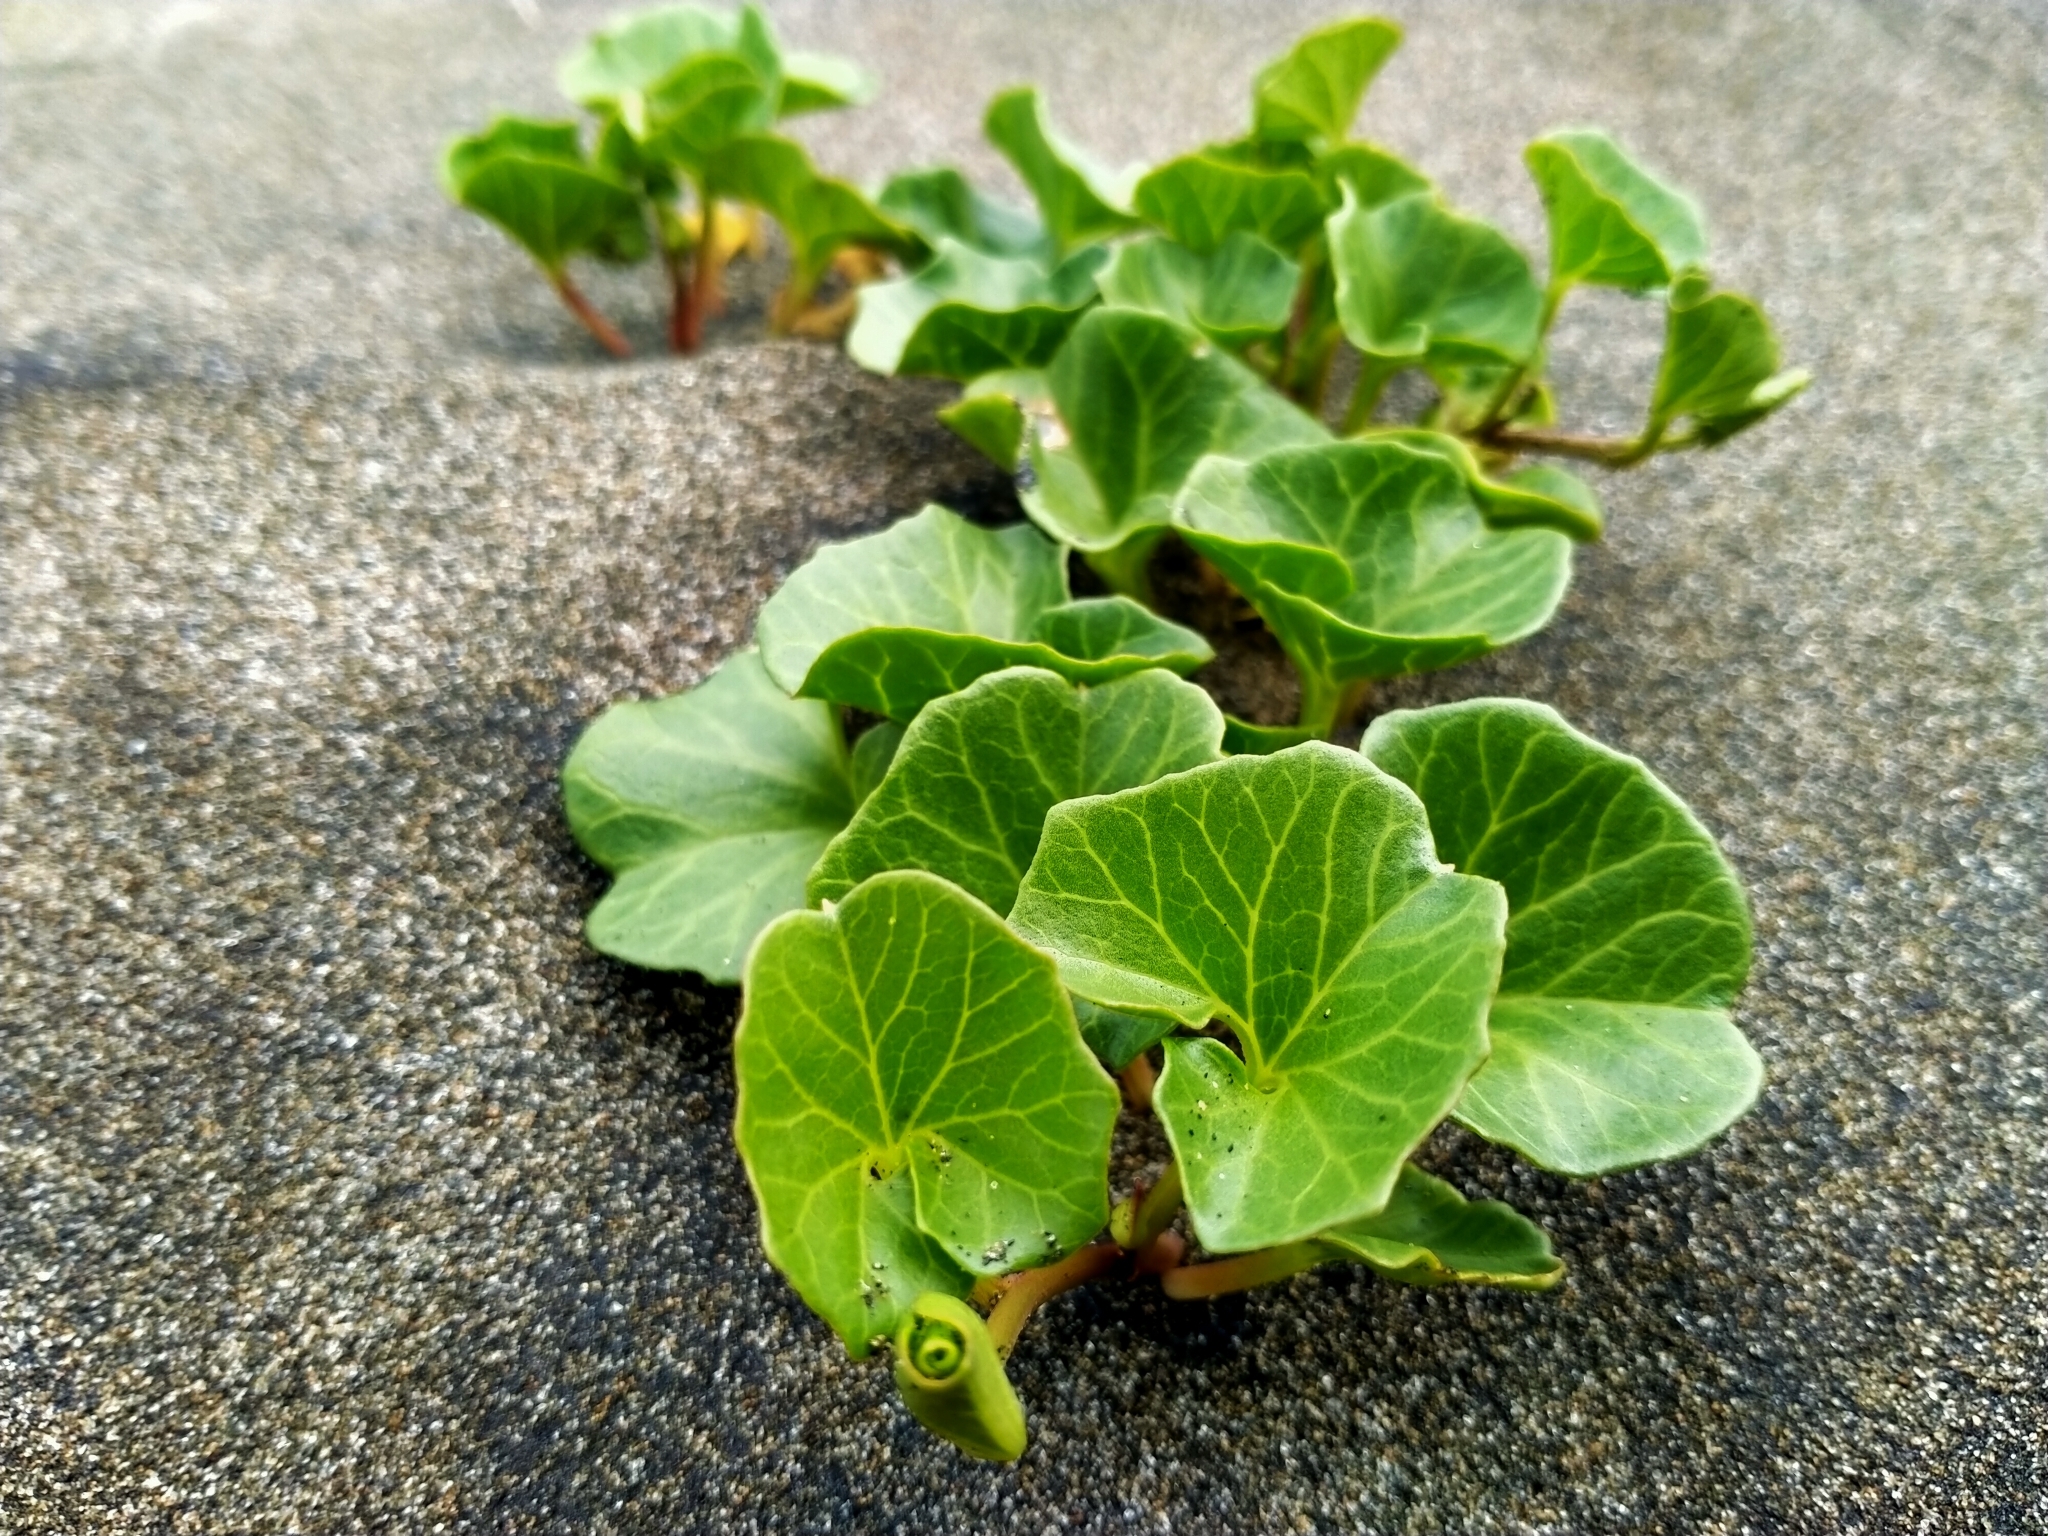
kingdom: Plantae
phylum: Tracheophyta
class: Magnoliopsida
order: Solanales
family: Convolvulaceae
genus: Calystegia
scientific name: Calystegia soldanella
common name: Sea bindweed
